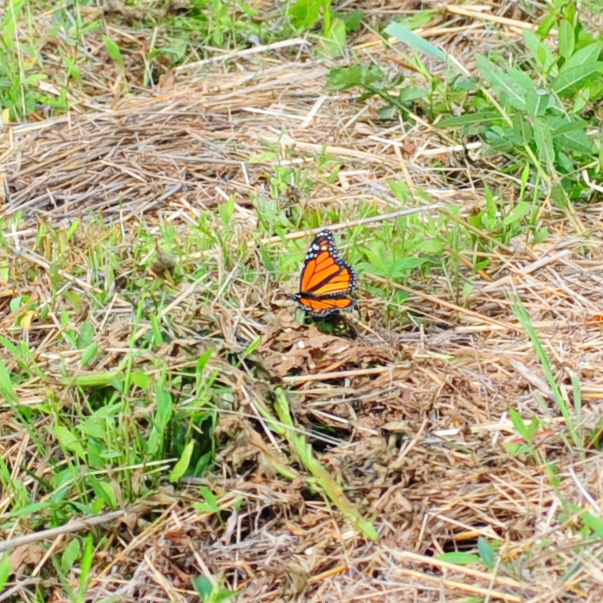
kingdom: Animalia
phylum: Arthropoda
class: Insecta
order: Lepidoptera
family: Nymphalidae
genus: Danaus
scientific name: Danaus plexippus
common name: Monarch
